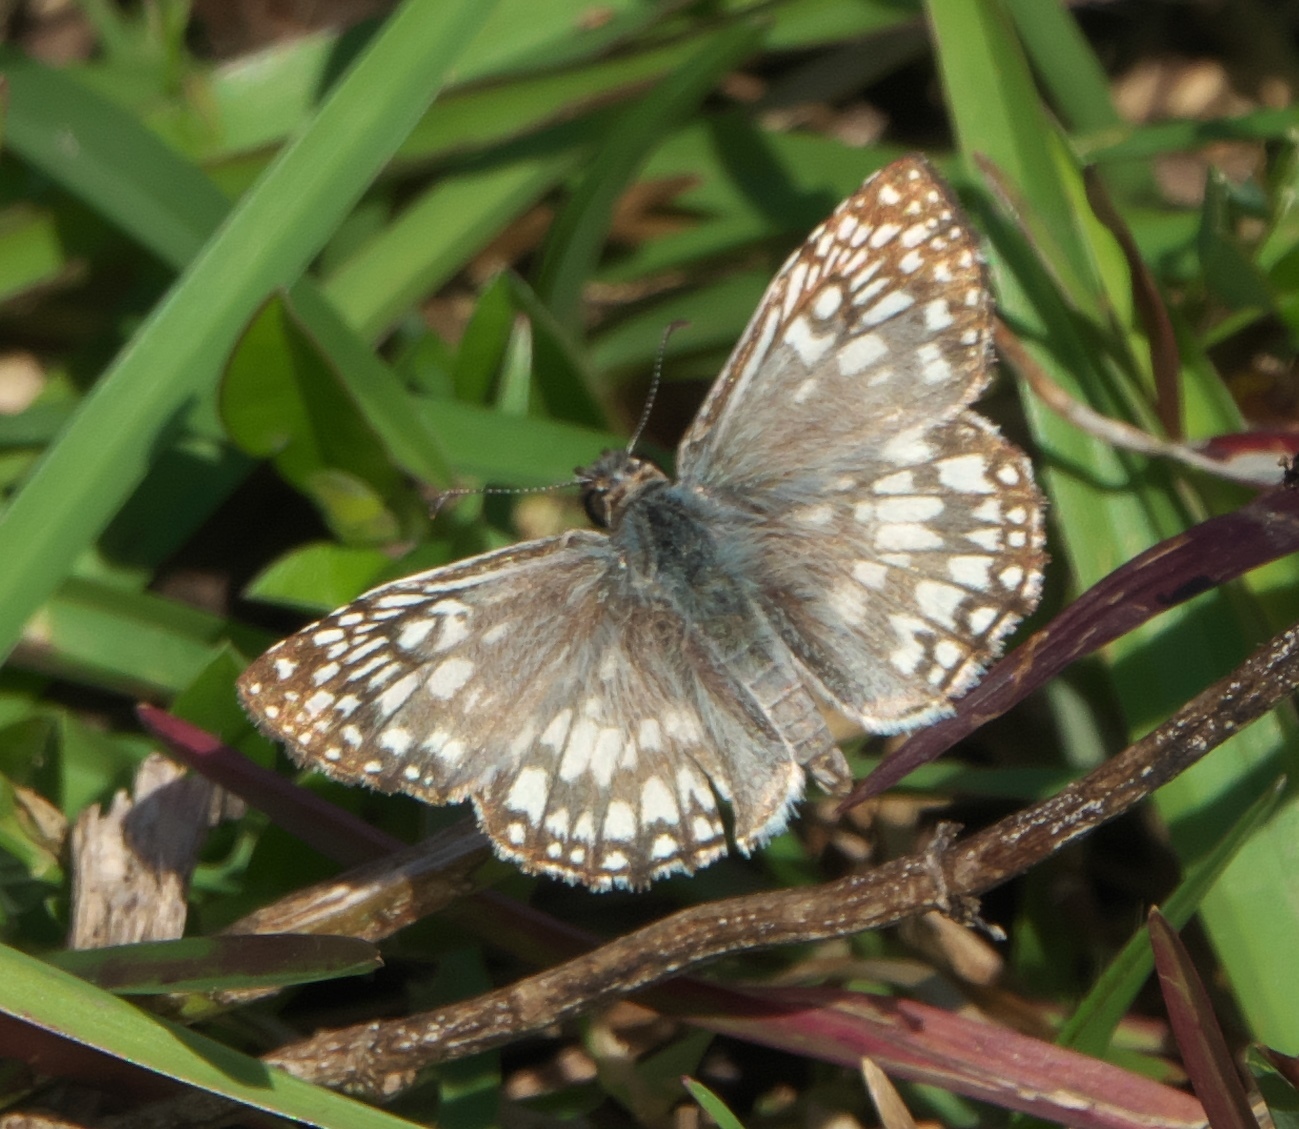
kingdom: Animalia
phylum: Arthropoda
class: Insecta
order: Lepidoptera
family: Hesperiidae
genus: Pyrgus
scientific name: Pyrgus oileus
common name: Tropical checkered-skipper
